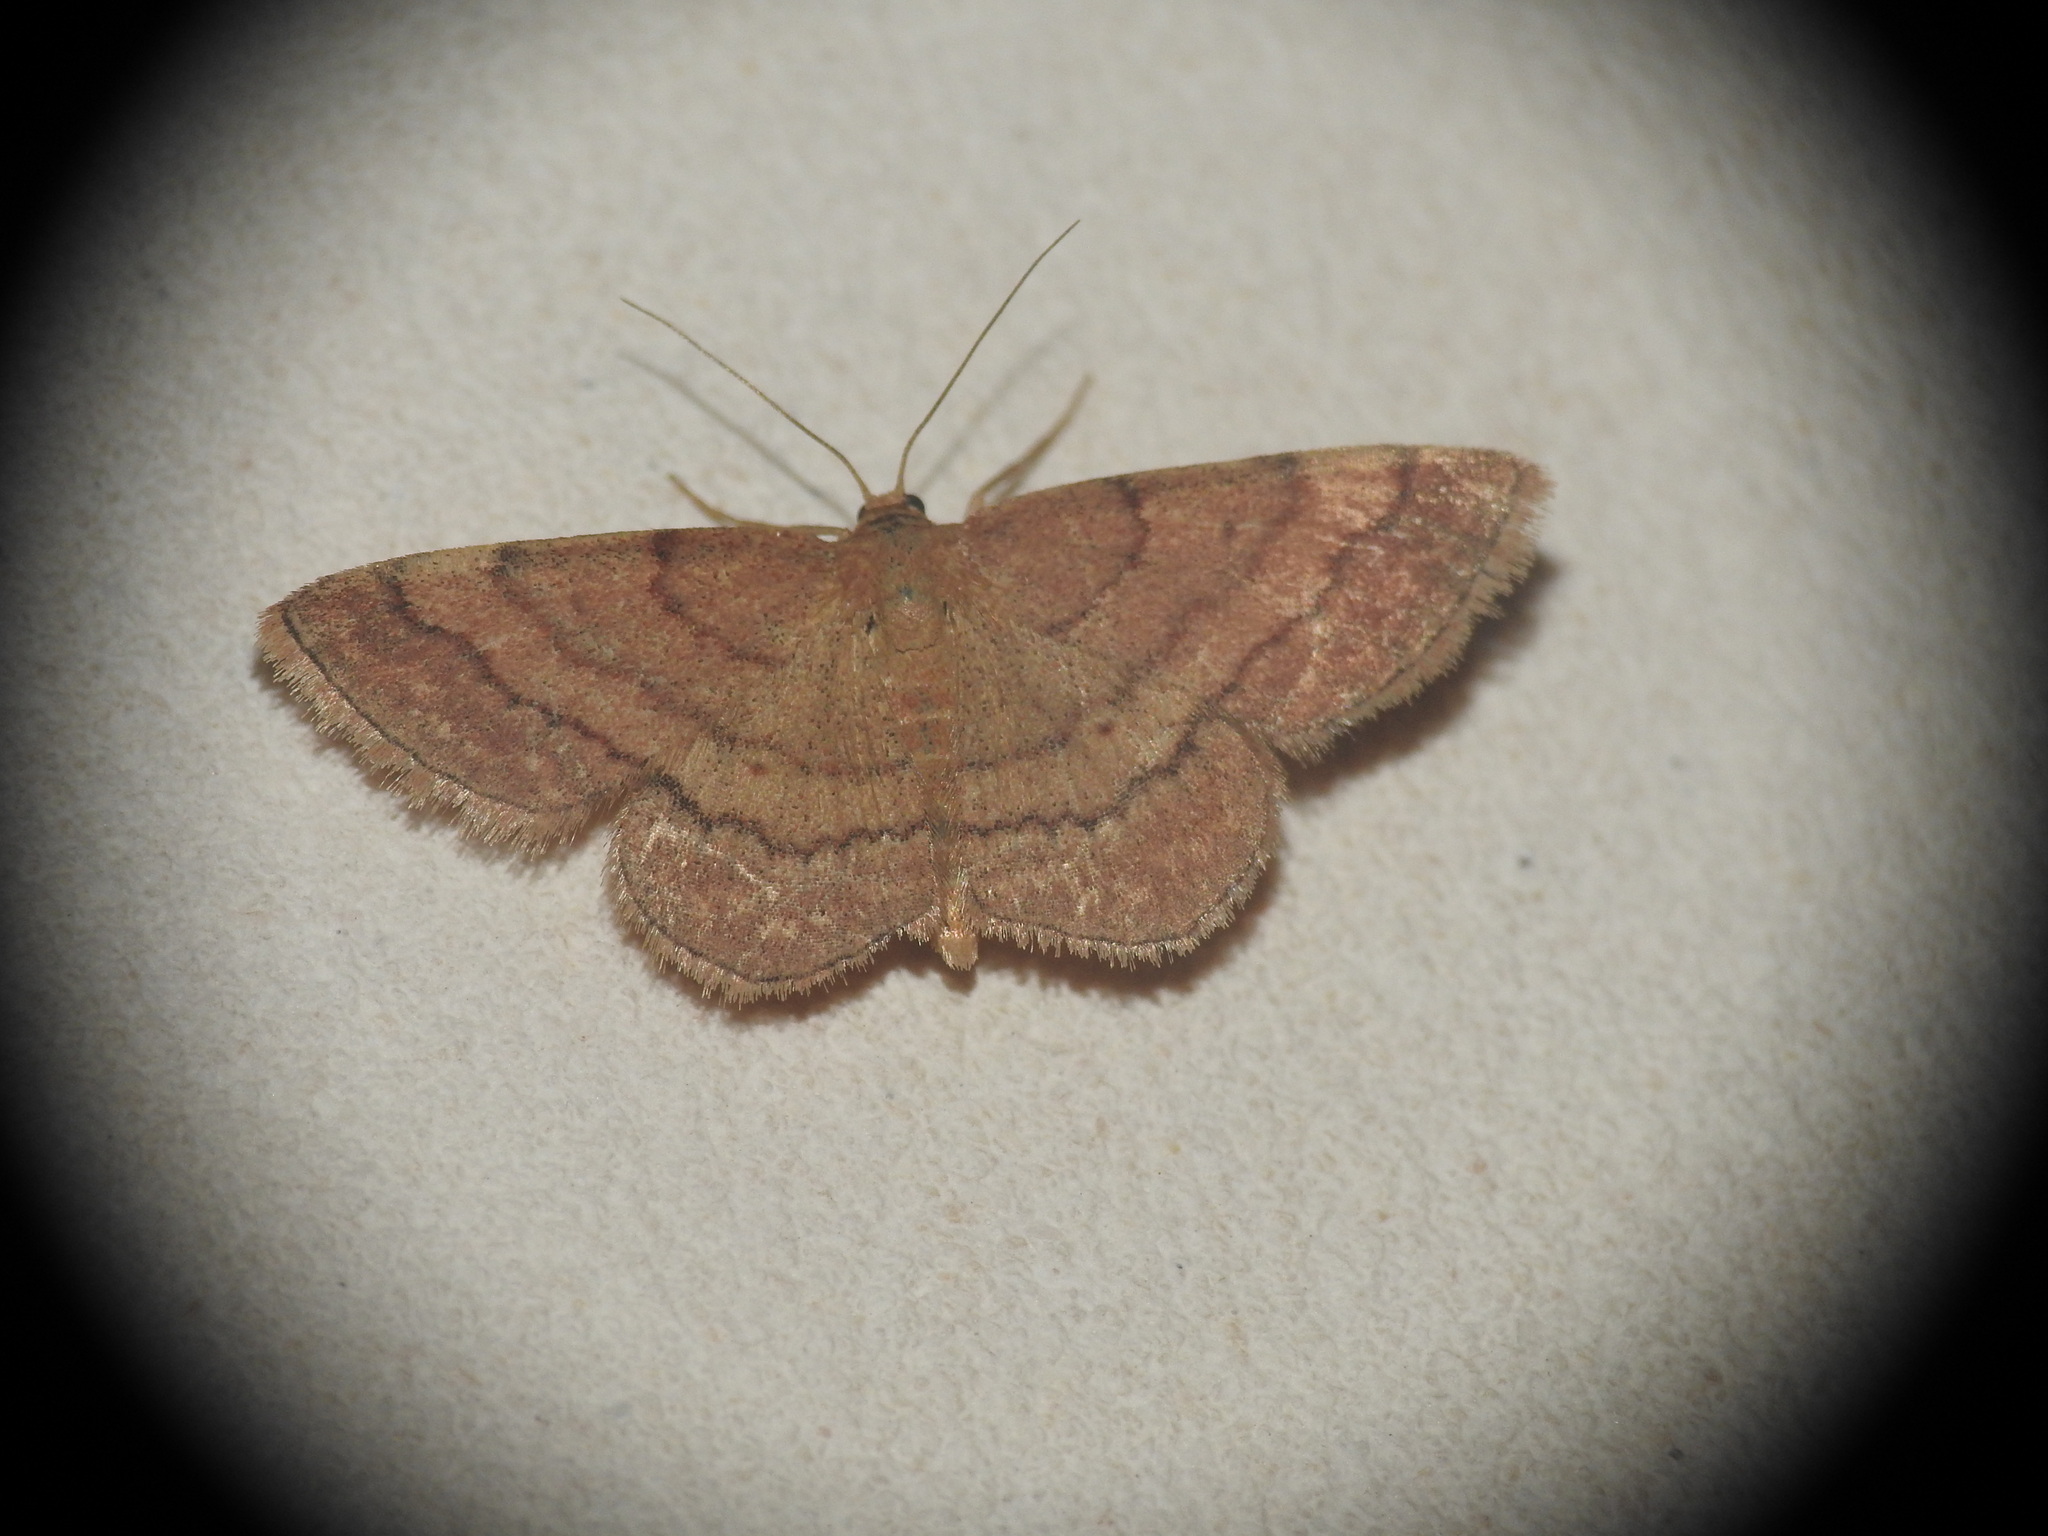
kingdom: Animalia
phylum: Arthropoda
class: Insecta
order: Lepidoptera
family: Geometridae
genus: Scopula
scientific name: Scopula rubiginata
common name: Tawny wave
